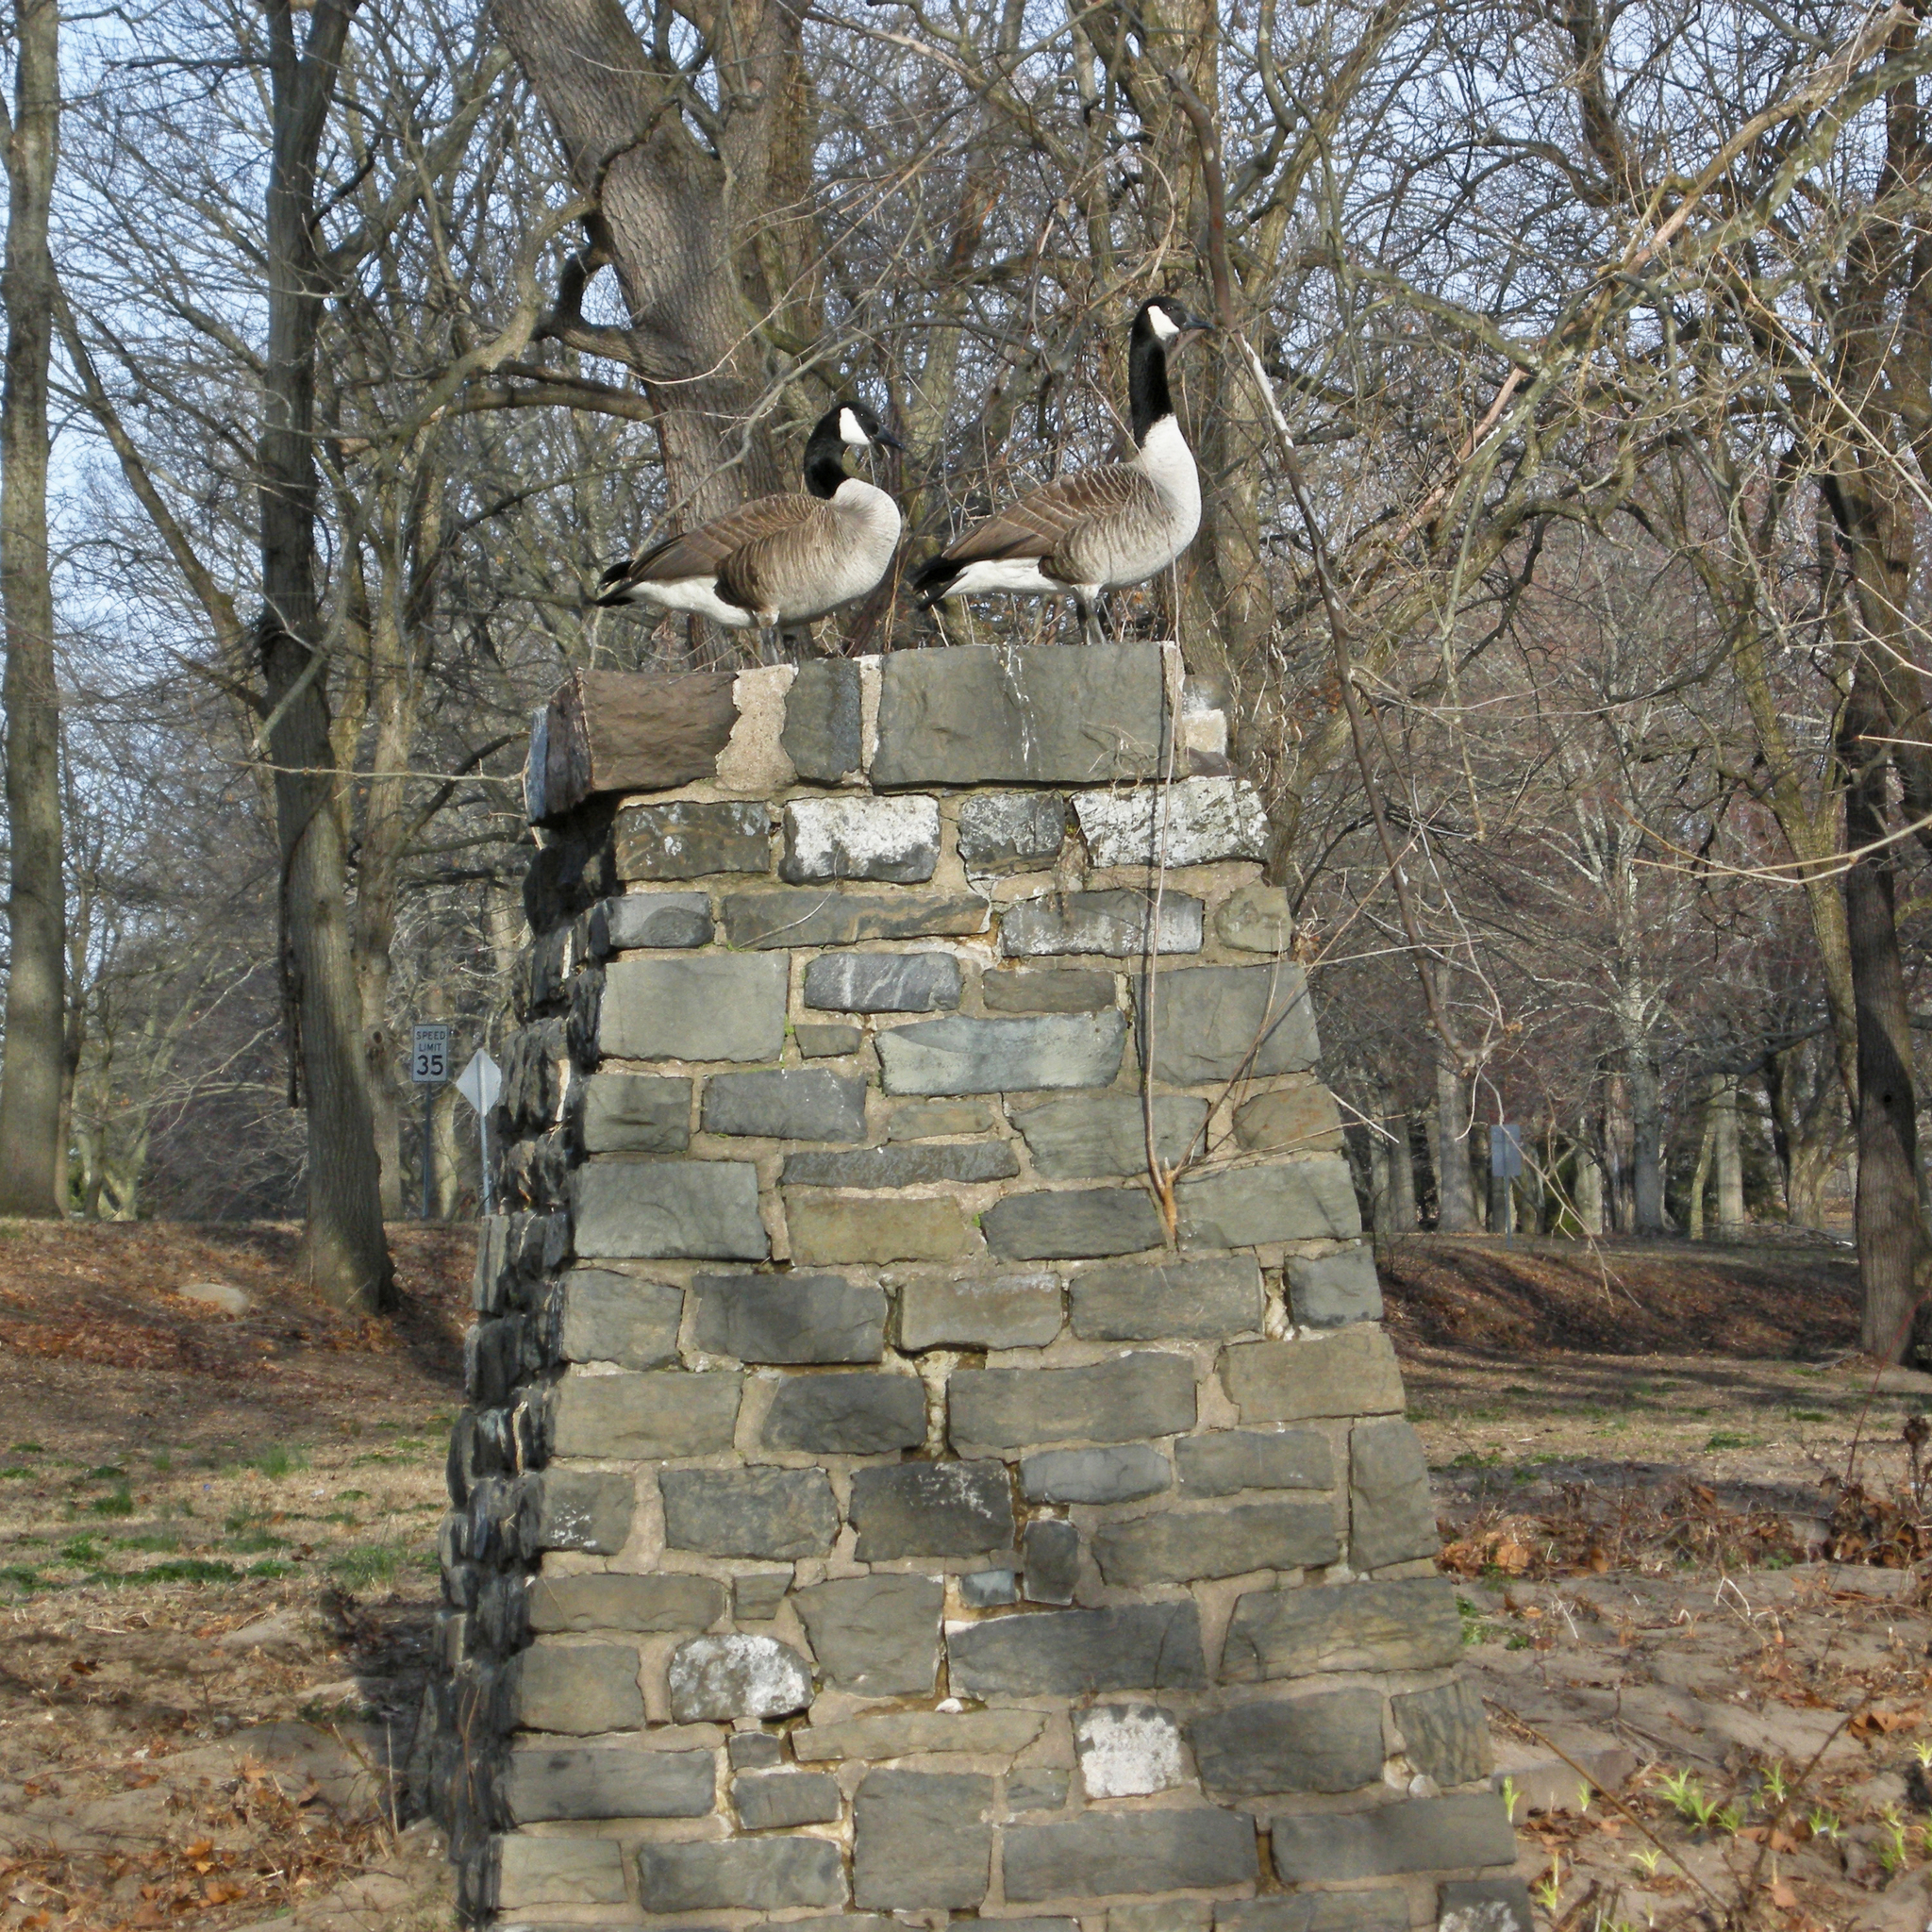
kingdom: Animalia
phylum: Chordata
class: Aves
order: Anseriformes
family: Anatidae
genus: Branta
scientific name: Branta canadensis
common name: Canada goose
